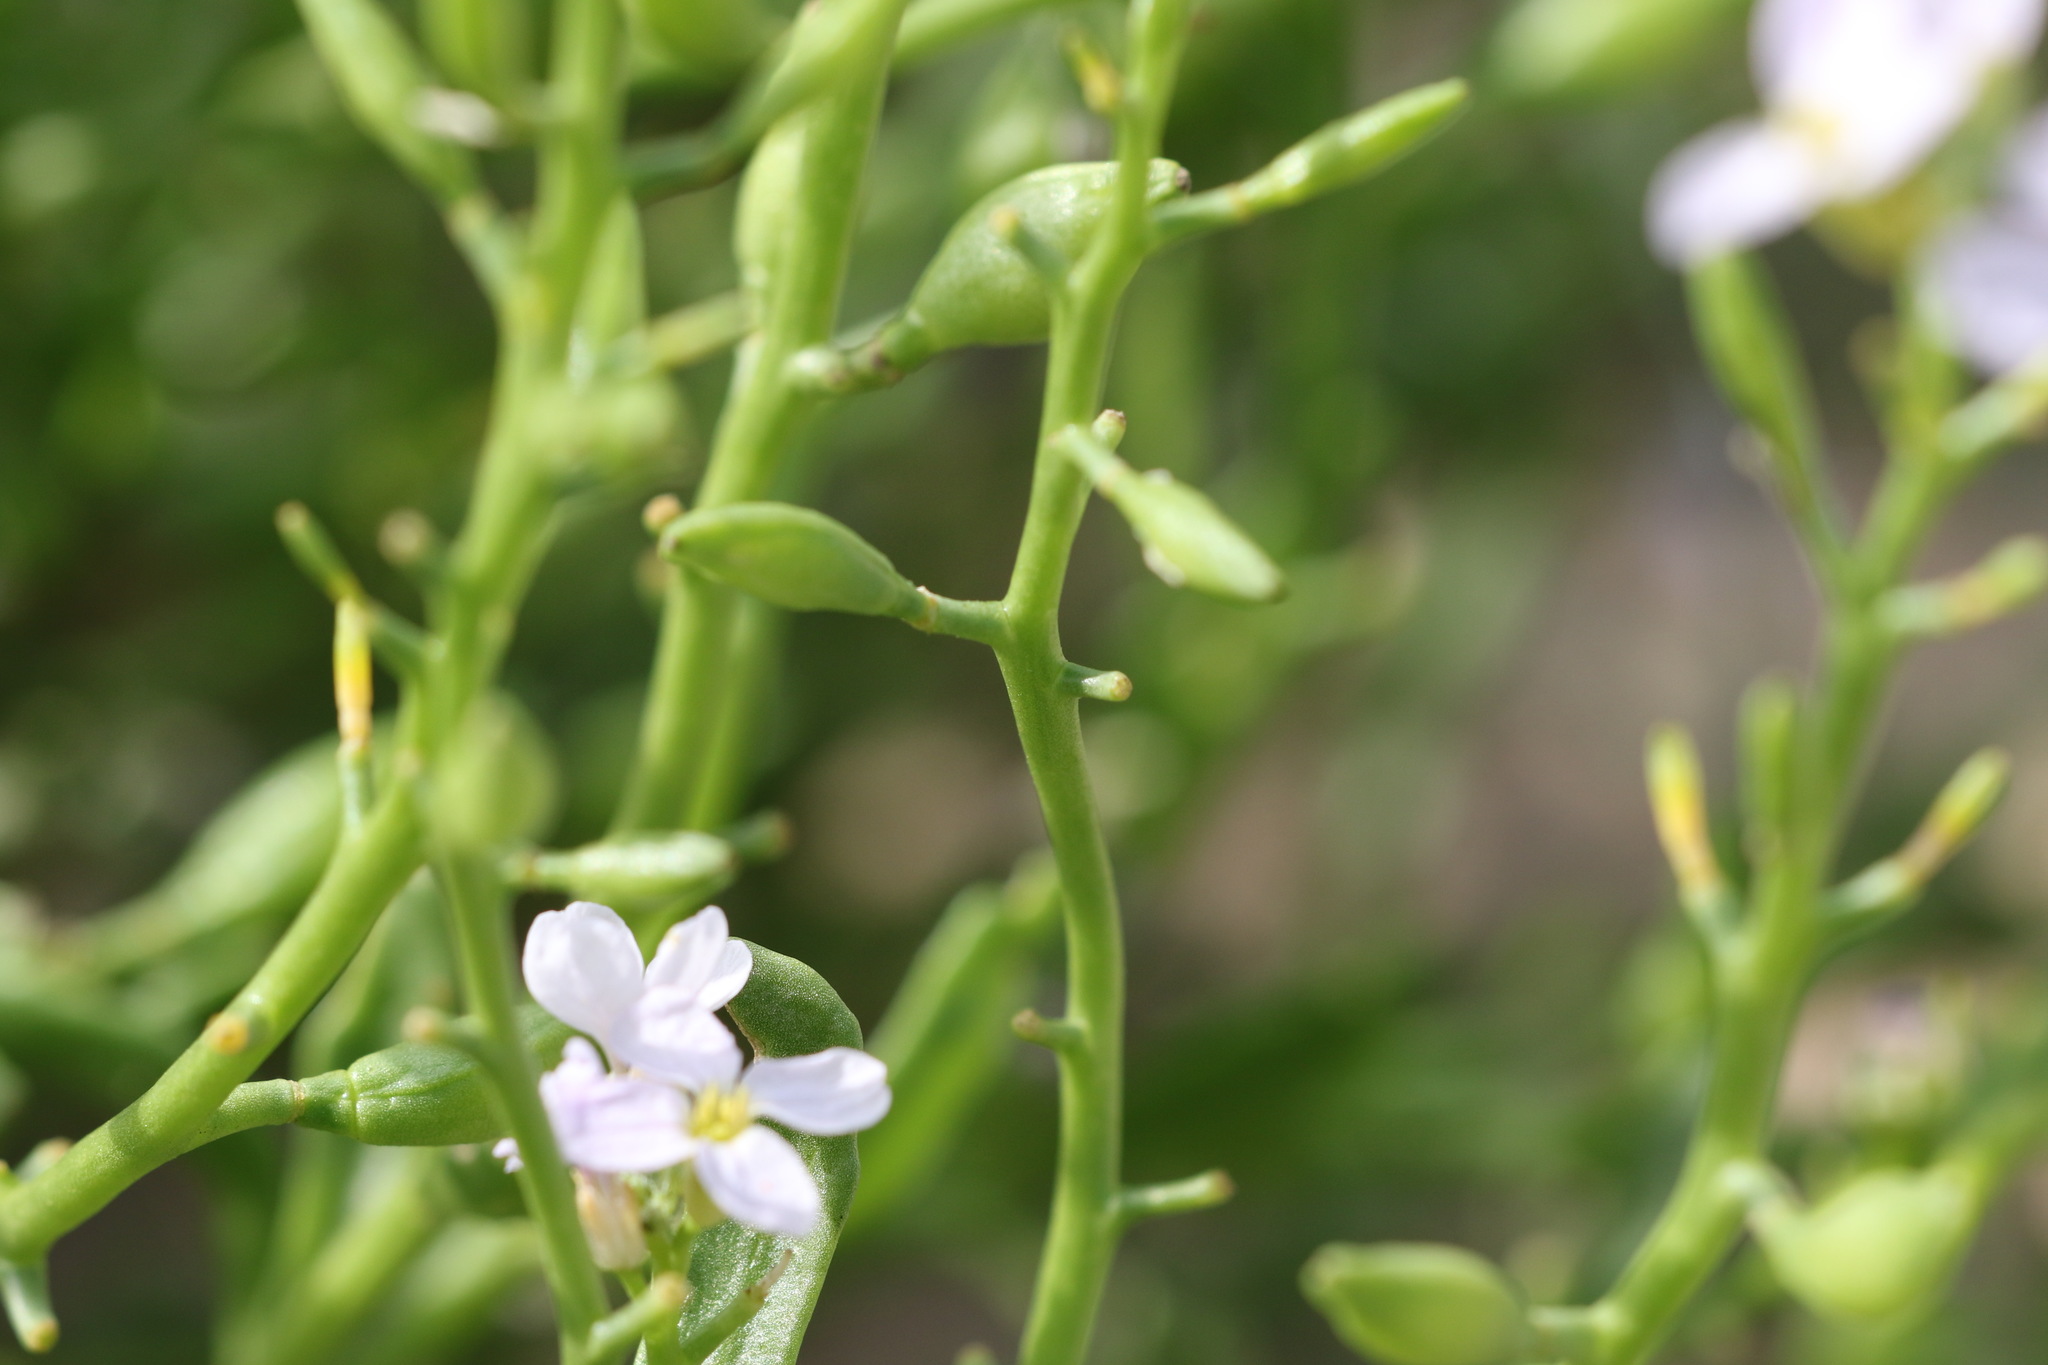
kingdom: Plantae
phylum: Tracheophyta
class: Magnoliopsida
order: Brassicales
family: Brassicaceae
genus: Cakile
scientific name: Cakile maritima
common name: Sea rocket
